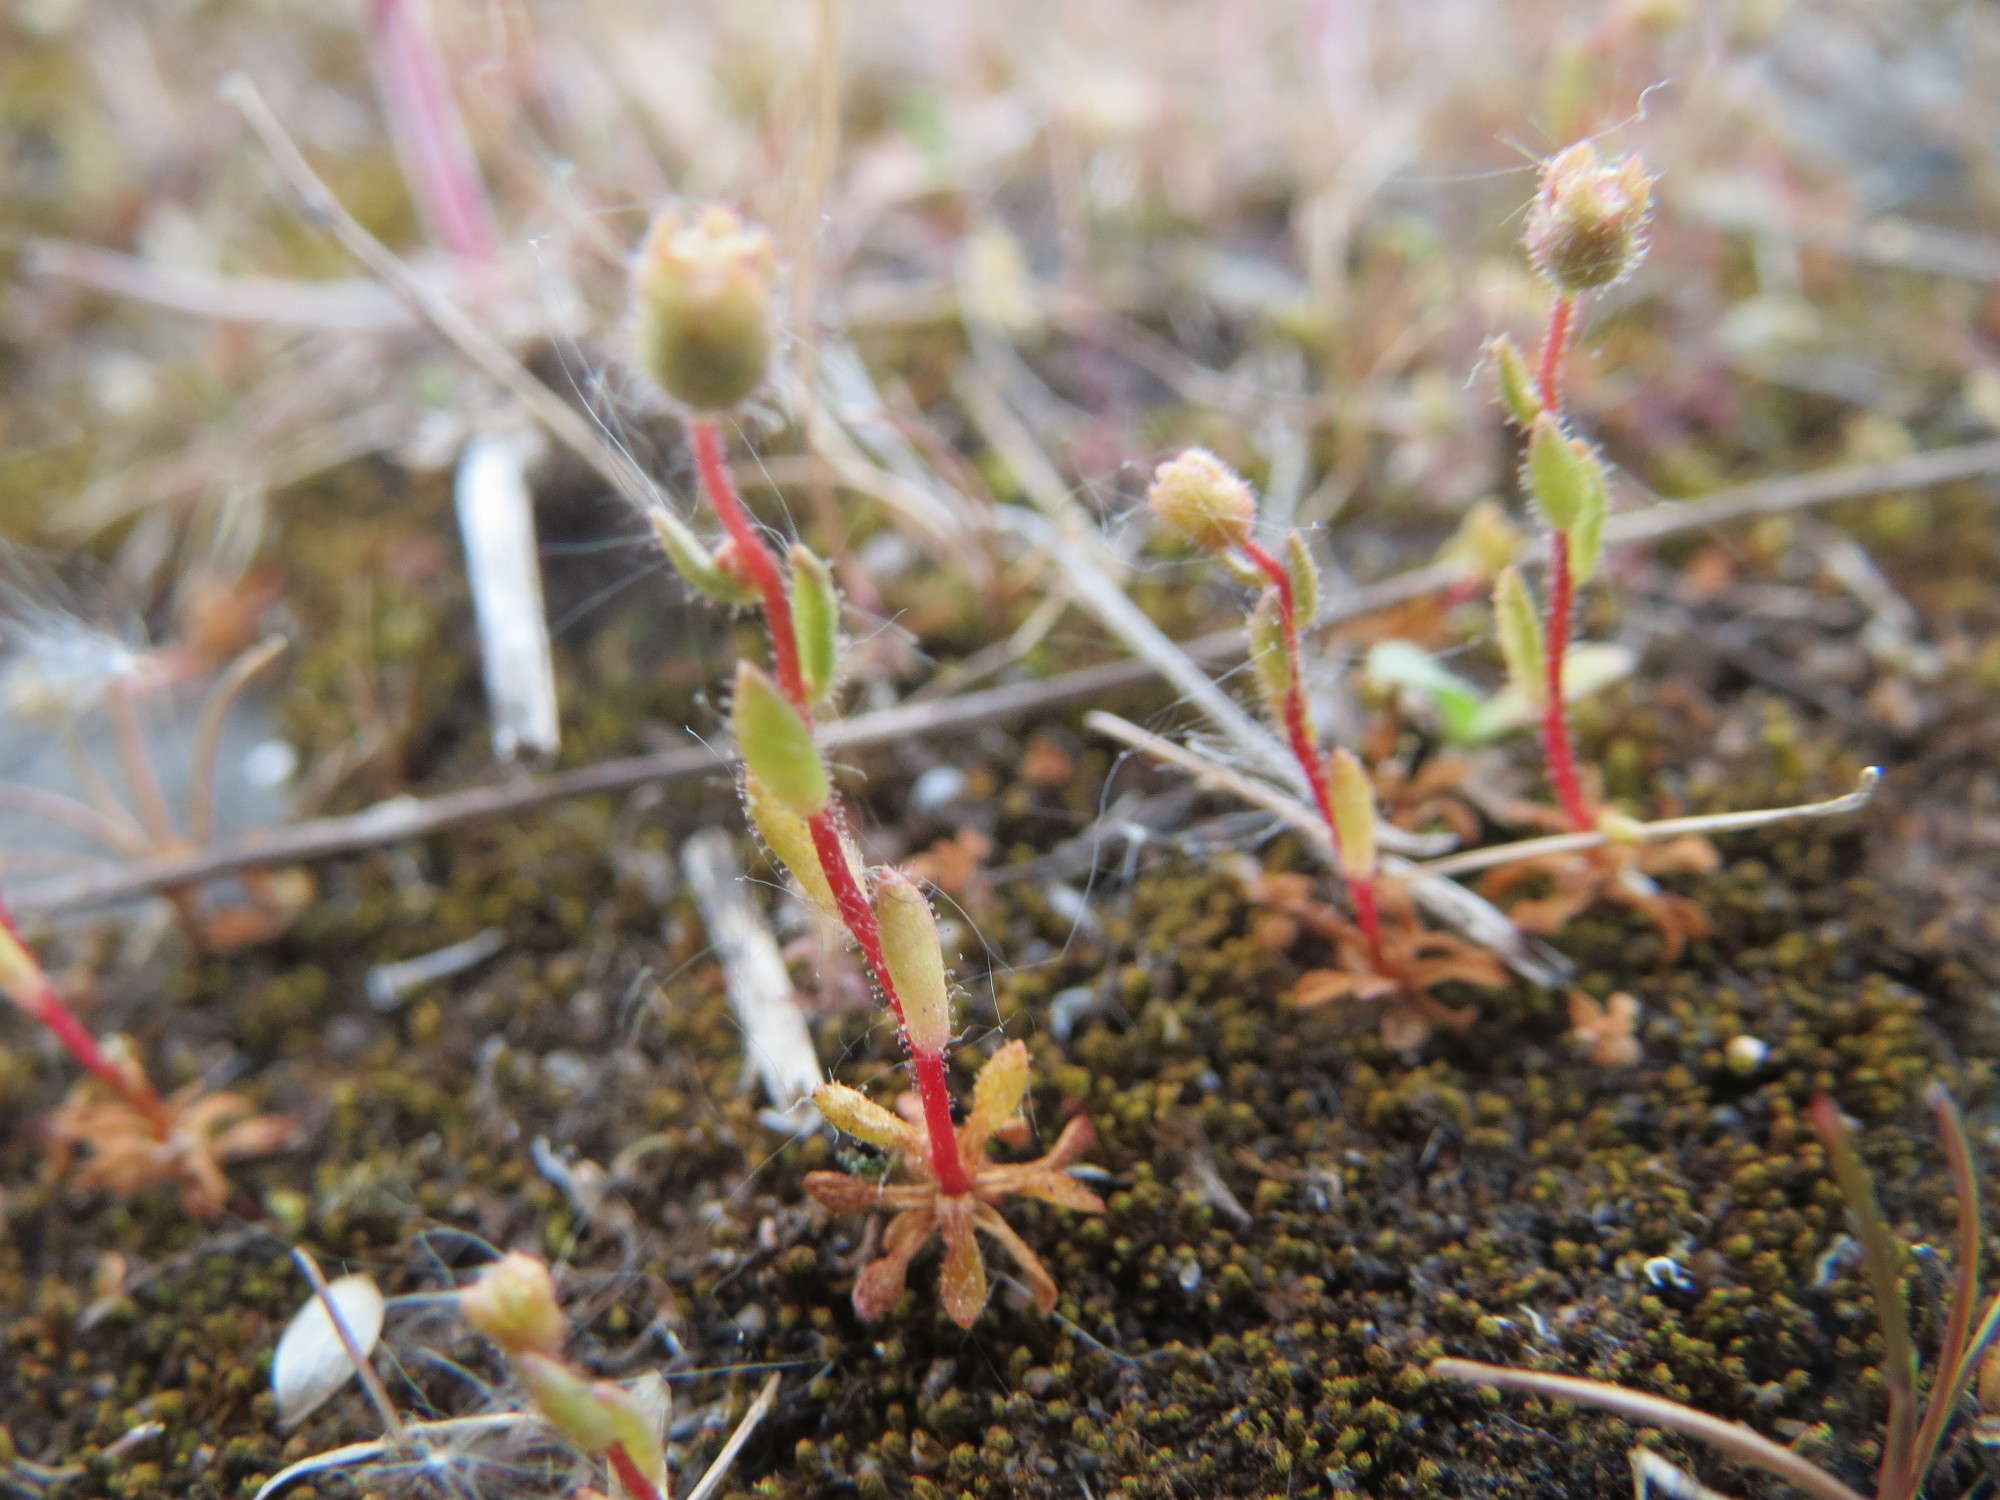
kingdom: Plantae
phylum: Tracheophyta
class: Magnoliopsida
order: Saxifragales
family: Saxifragaceae
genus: Saxifraga
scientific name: Saxifraga tridactylites
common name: Rue-leaved saxifrage
